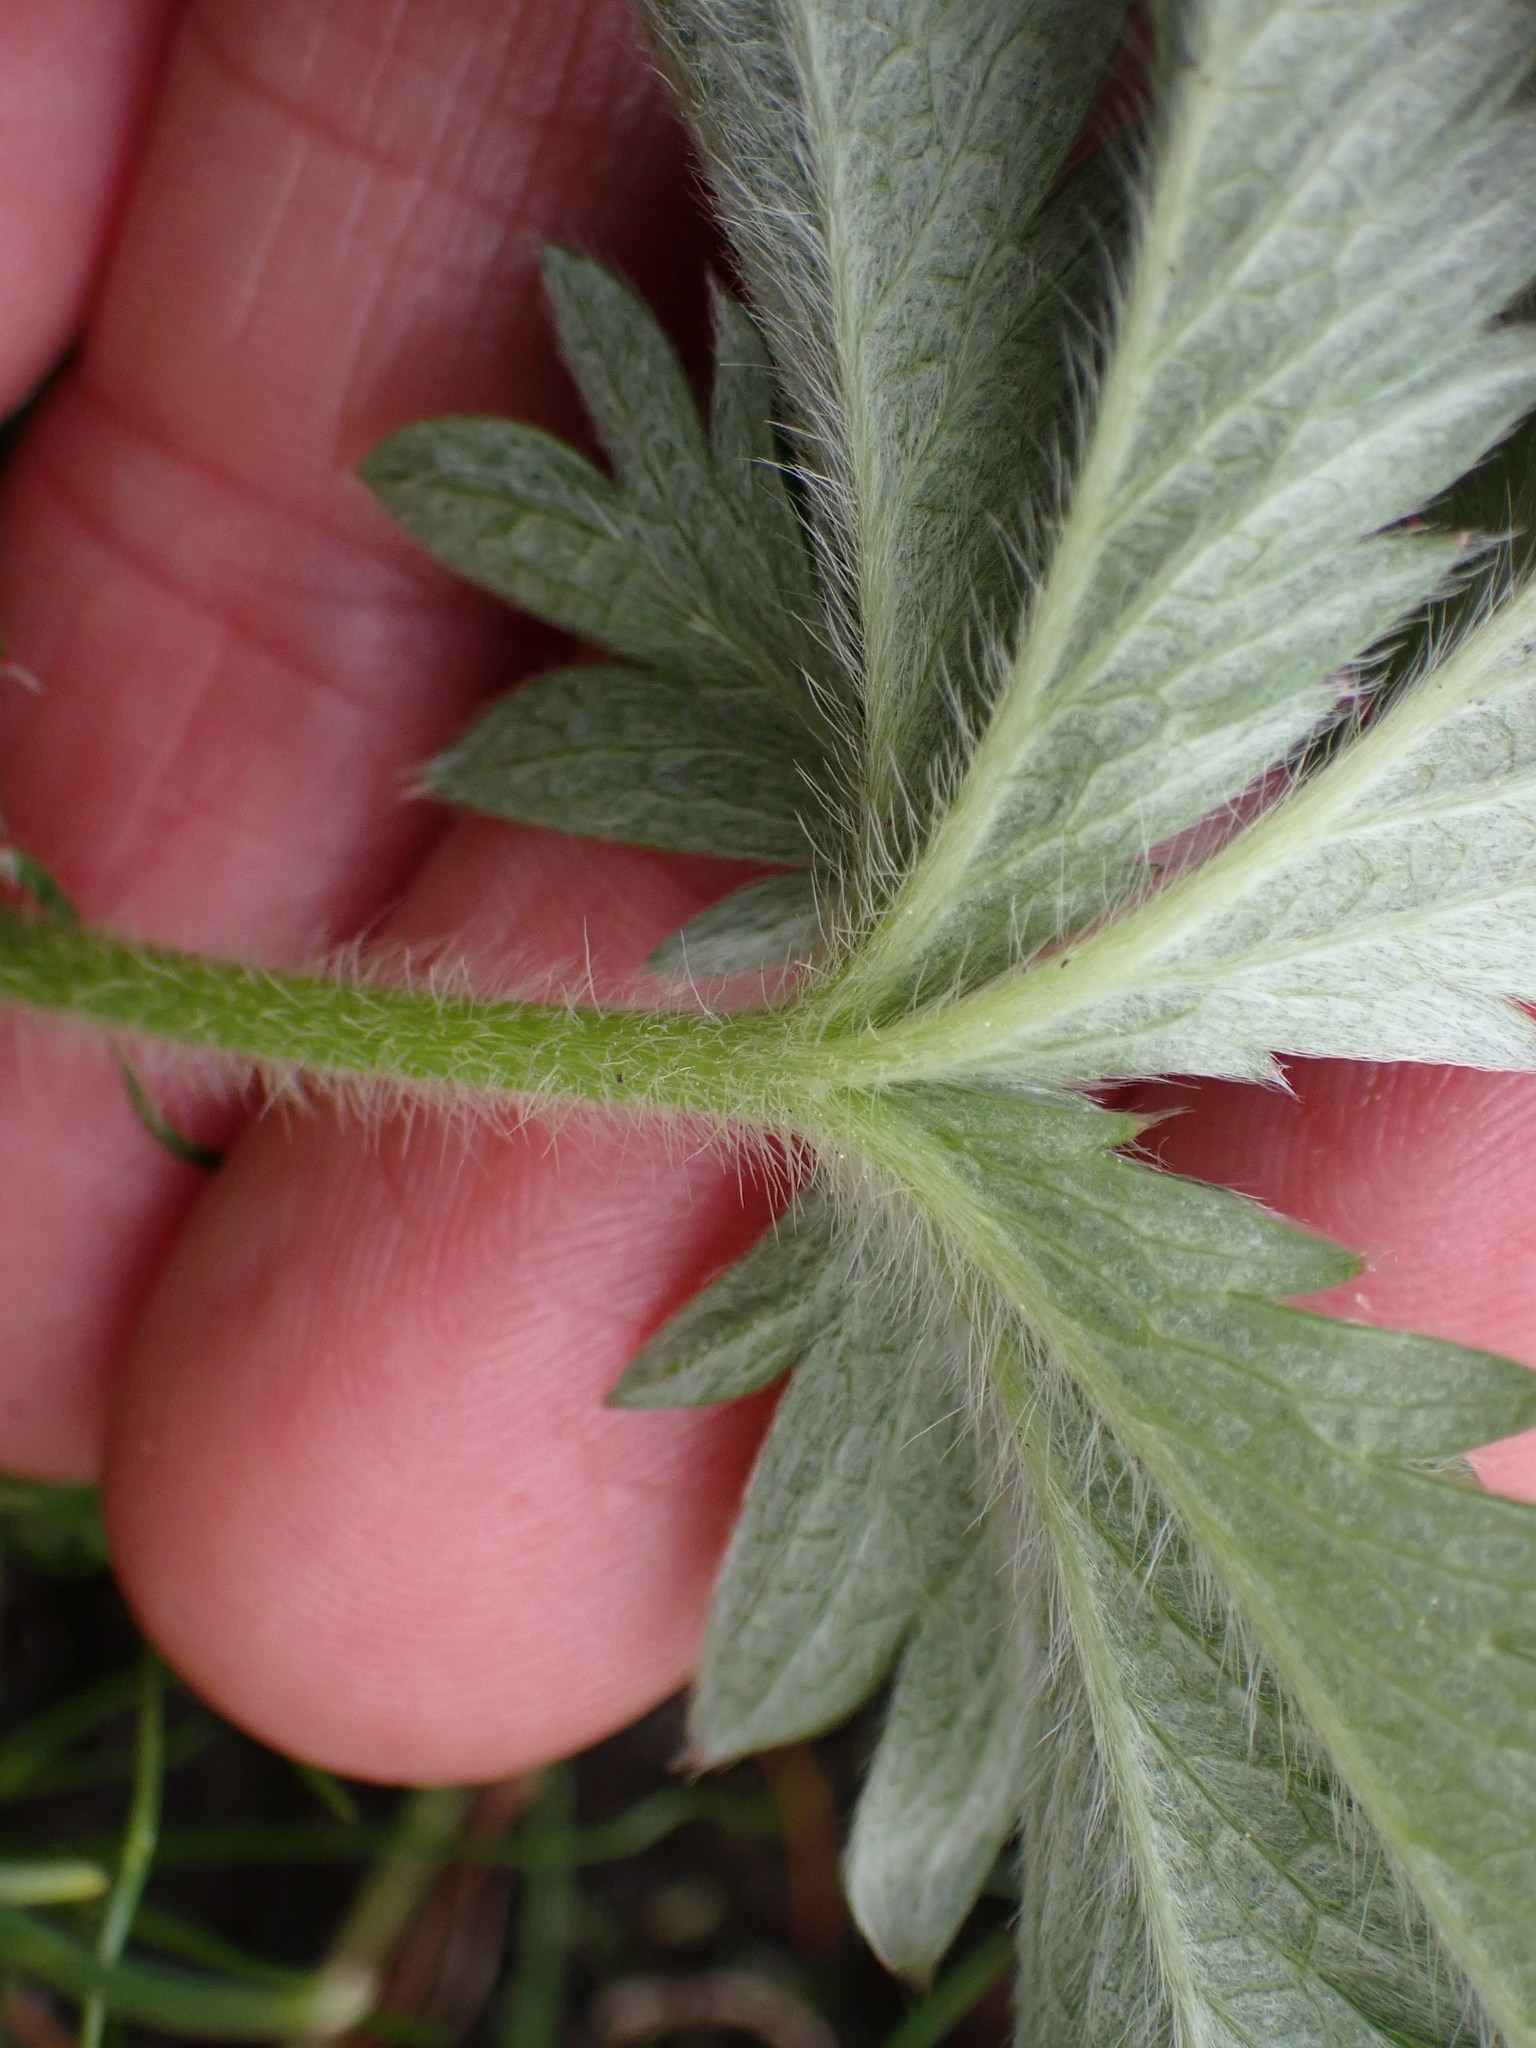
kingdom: Plantae
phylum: Tracheophyta
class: Magnoliopsida
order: Rosales
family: Rosaceae
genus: Potentilla
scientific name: Potentilla gracilis
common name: Graceful cinquefoil
